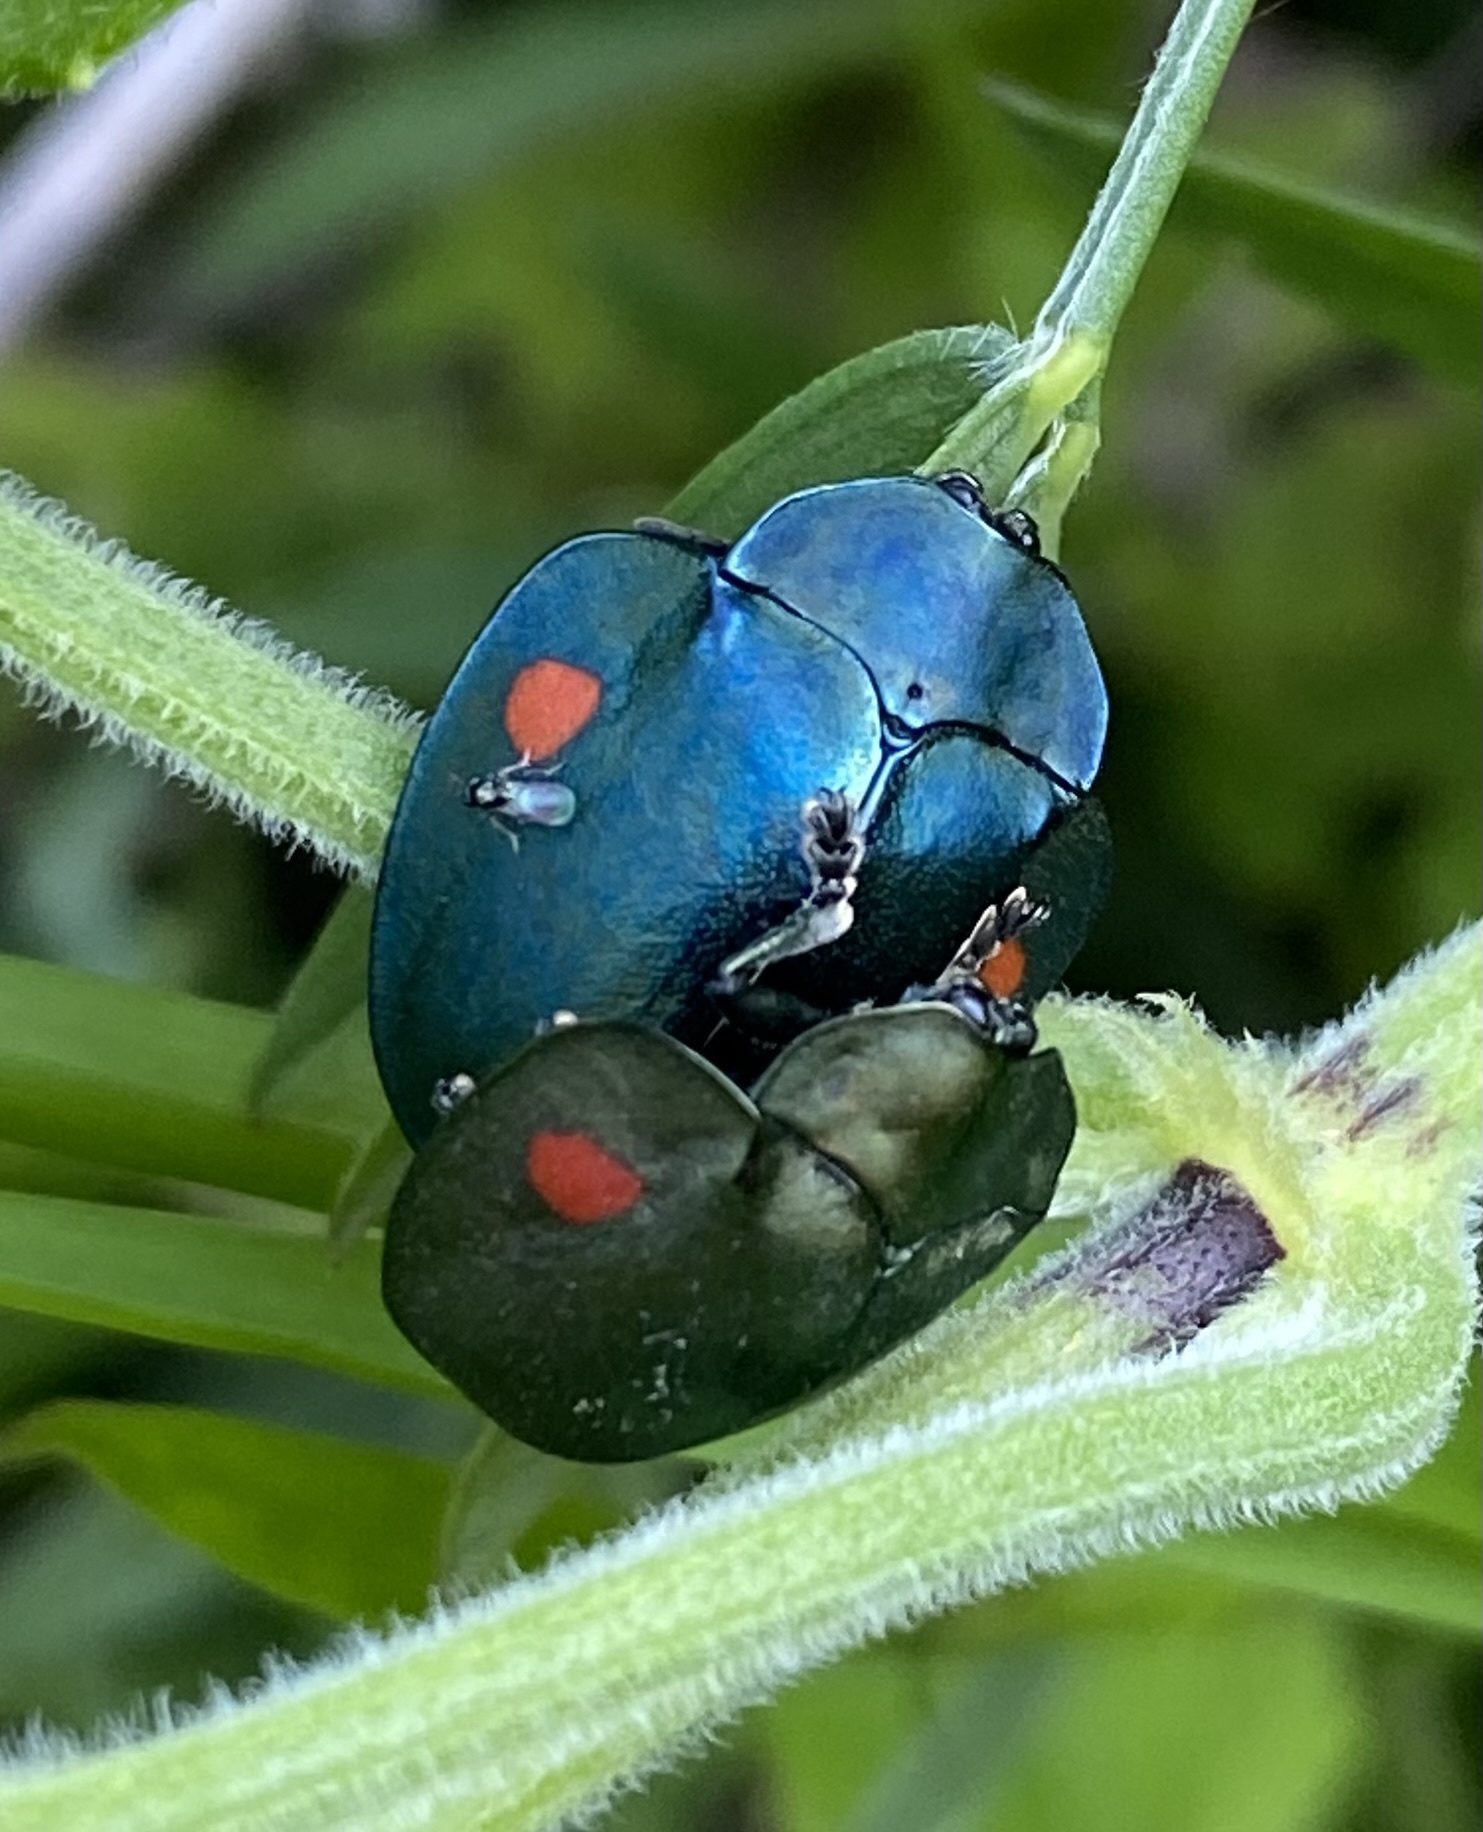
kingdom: Animalia
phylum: Arthropoda
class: Insecta
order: Coleoptera
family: Chrysomelidae
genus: Stolas
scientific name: Stolas
